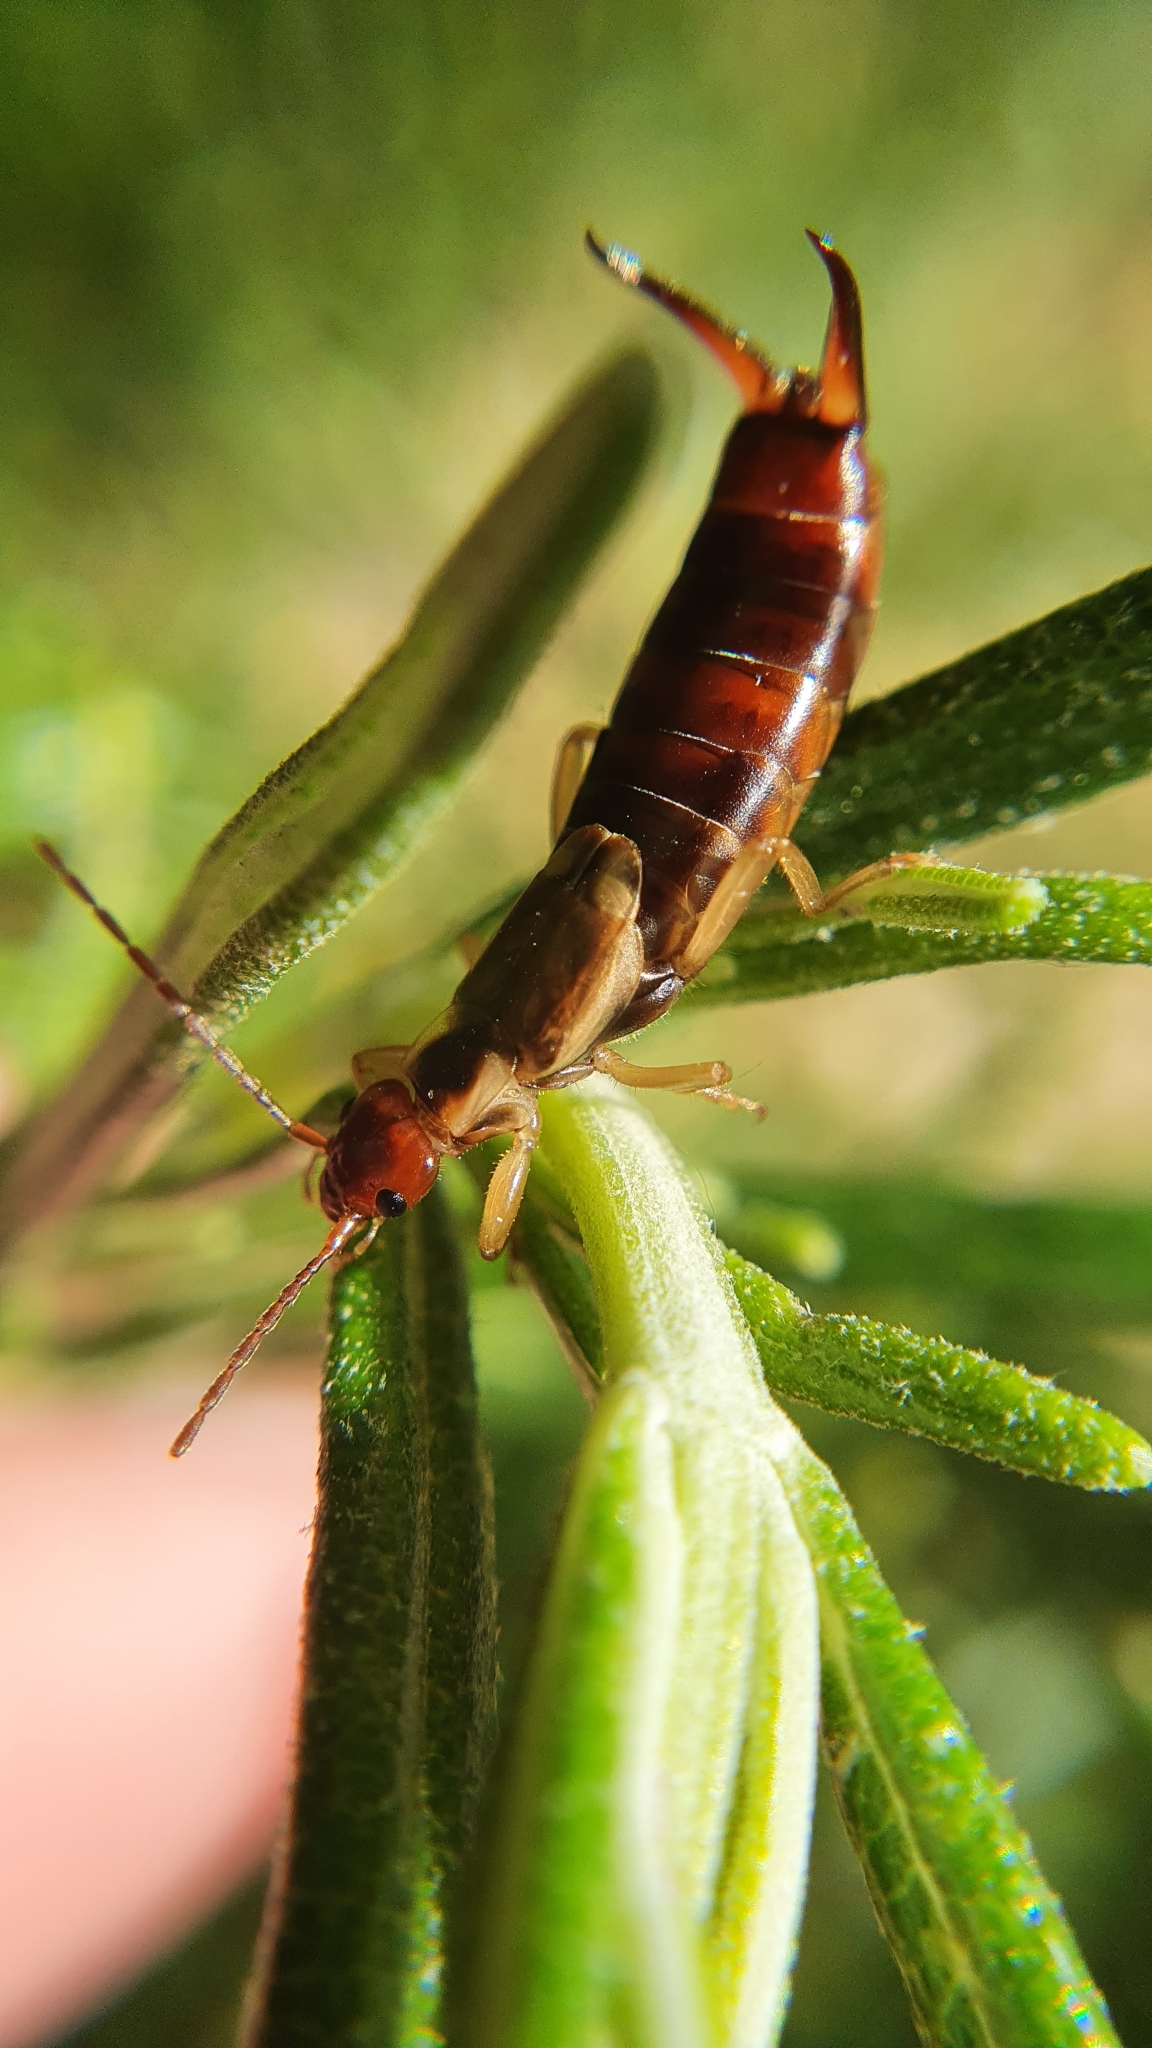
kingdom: Animalia
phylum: Arthropoda
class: Insecta
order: Dermaptera
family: Forficulidae
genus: Forficula
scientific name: Forficula
